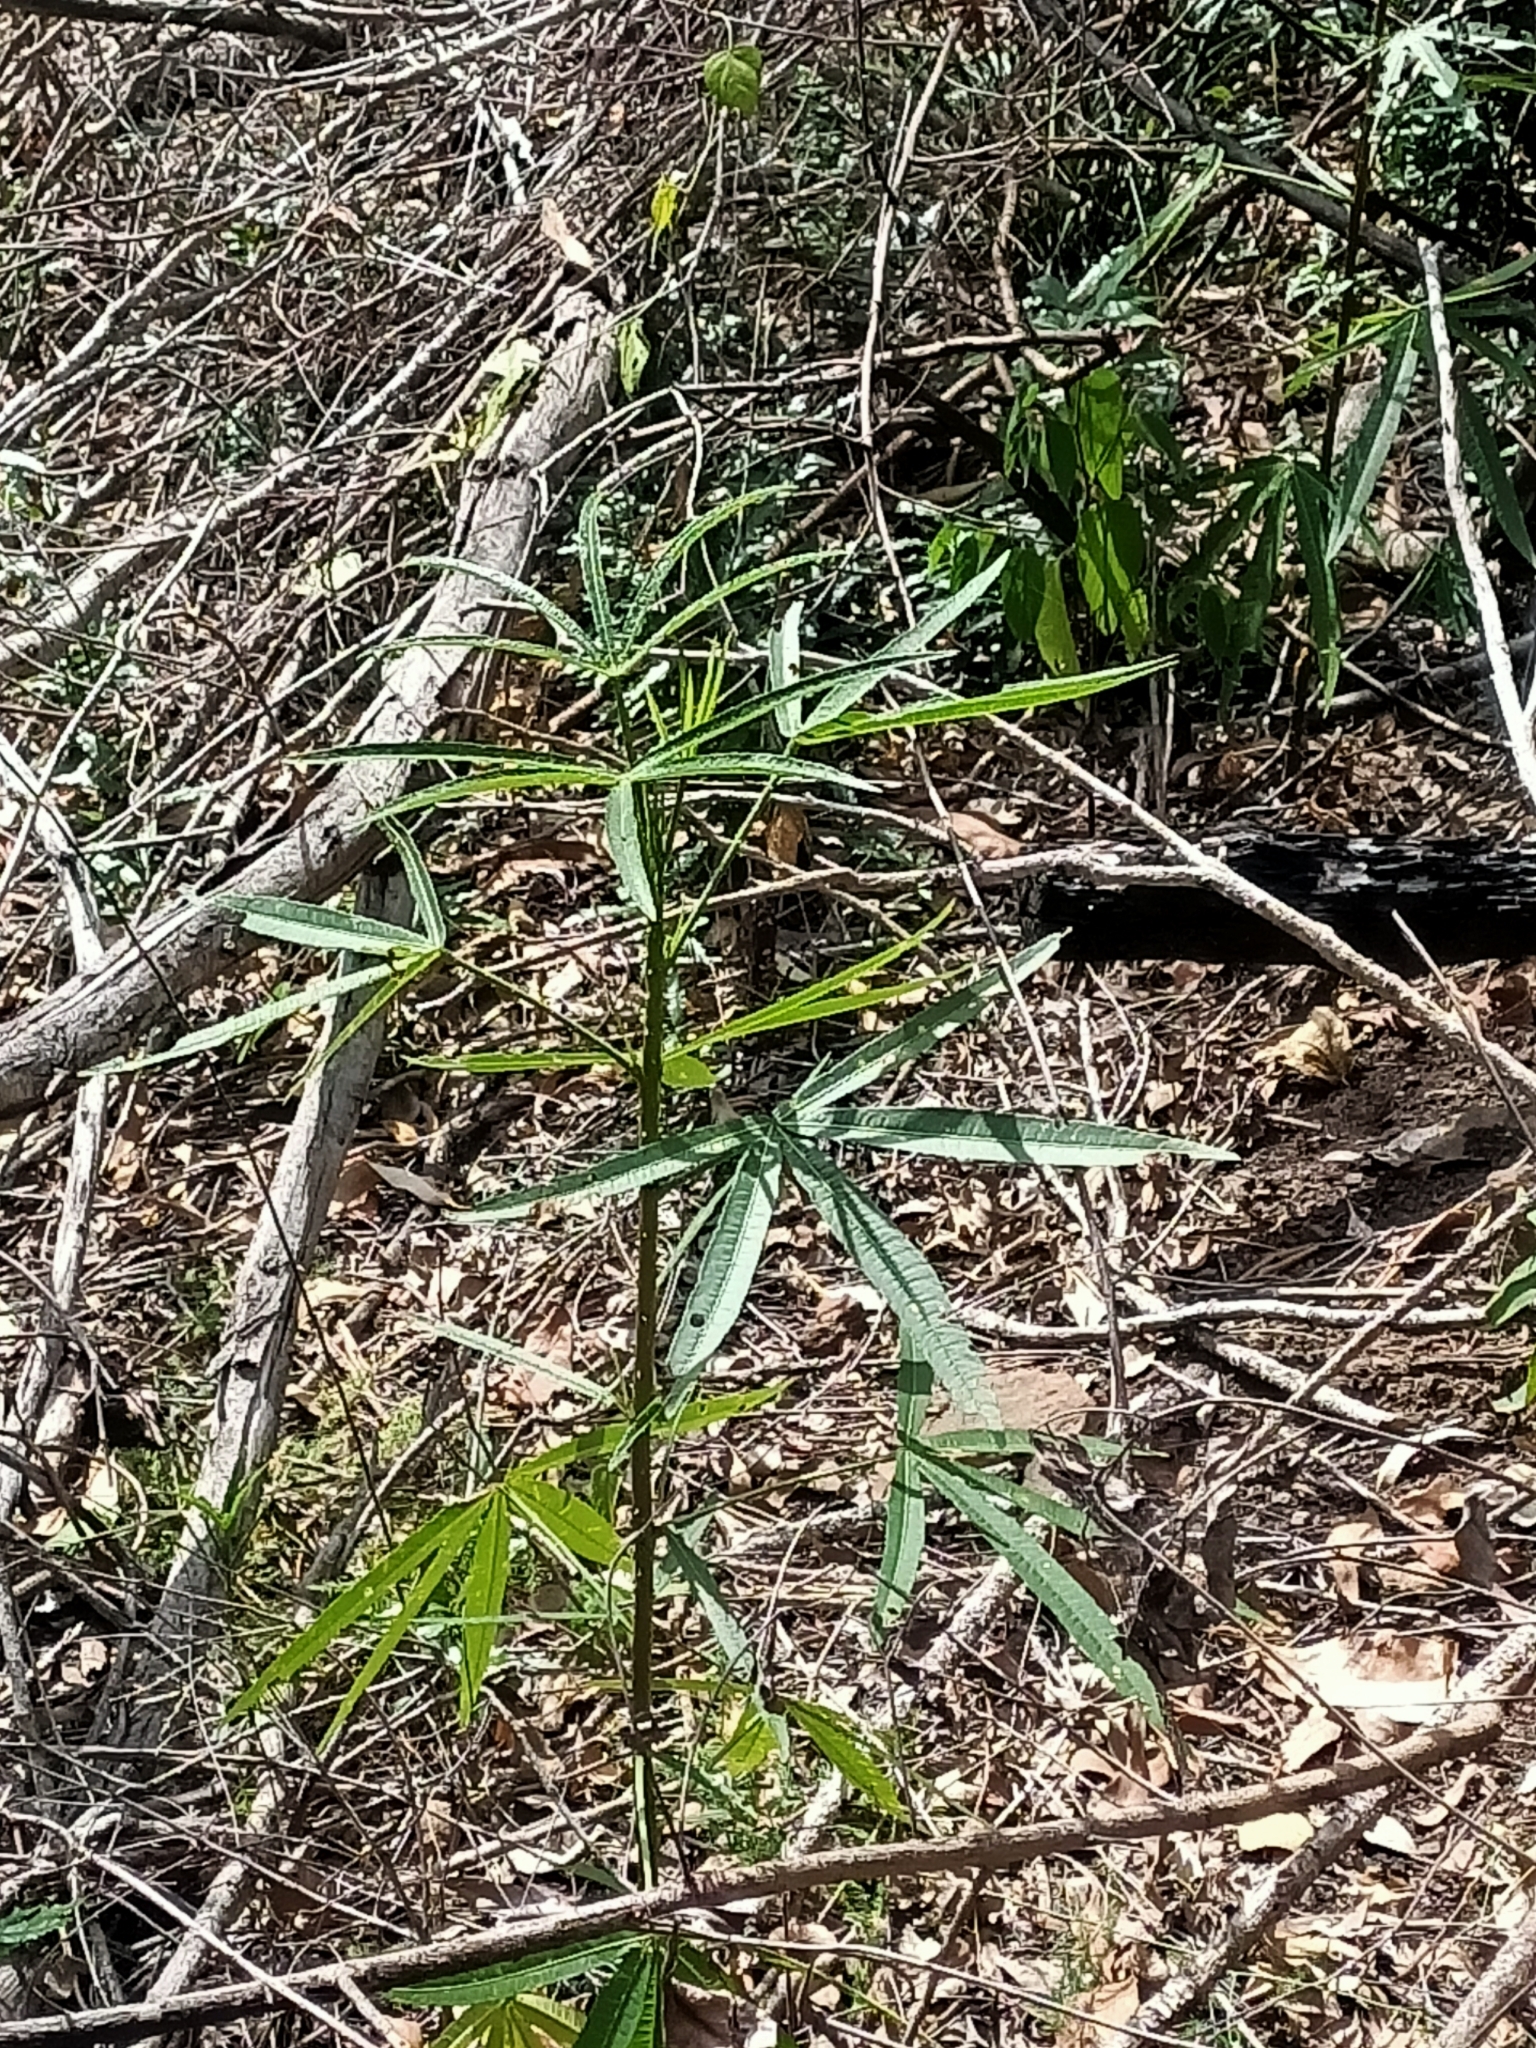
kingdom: Plantae
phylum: Tracheophyta
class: Magnoliopsida
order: Malvales
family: Malvaceae
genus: Hibiscus
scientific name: Hibiscus heterophyllus
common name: Queensland-sorrel
